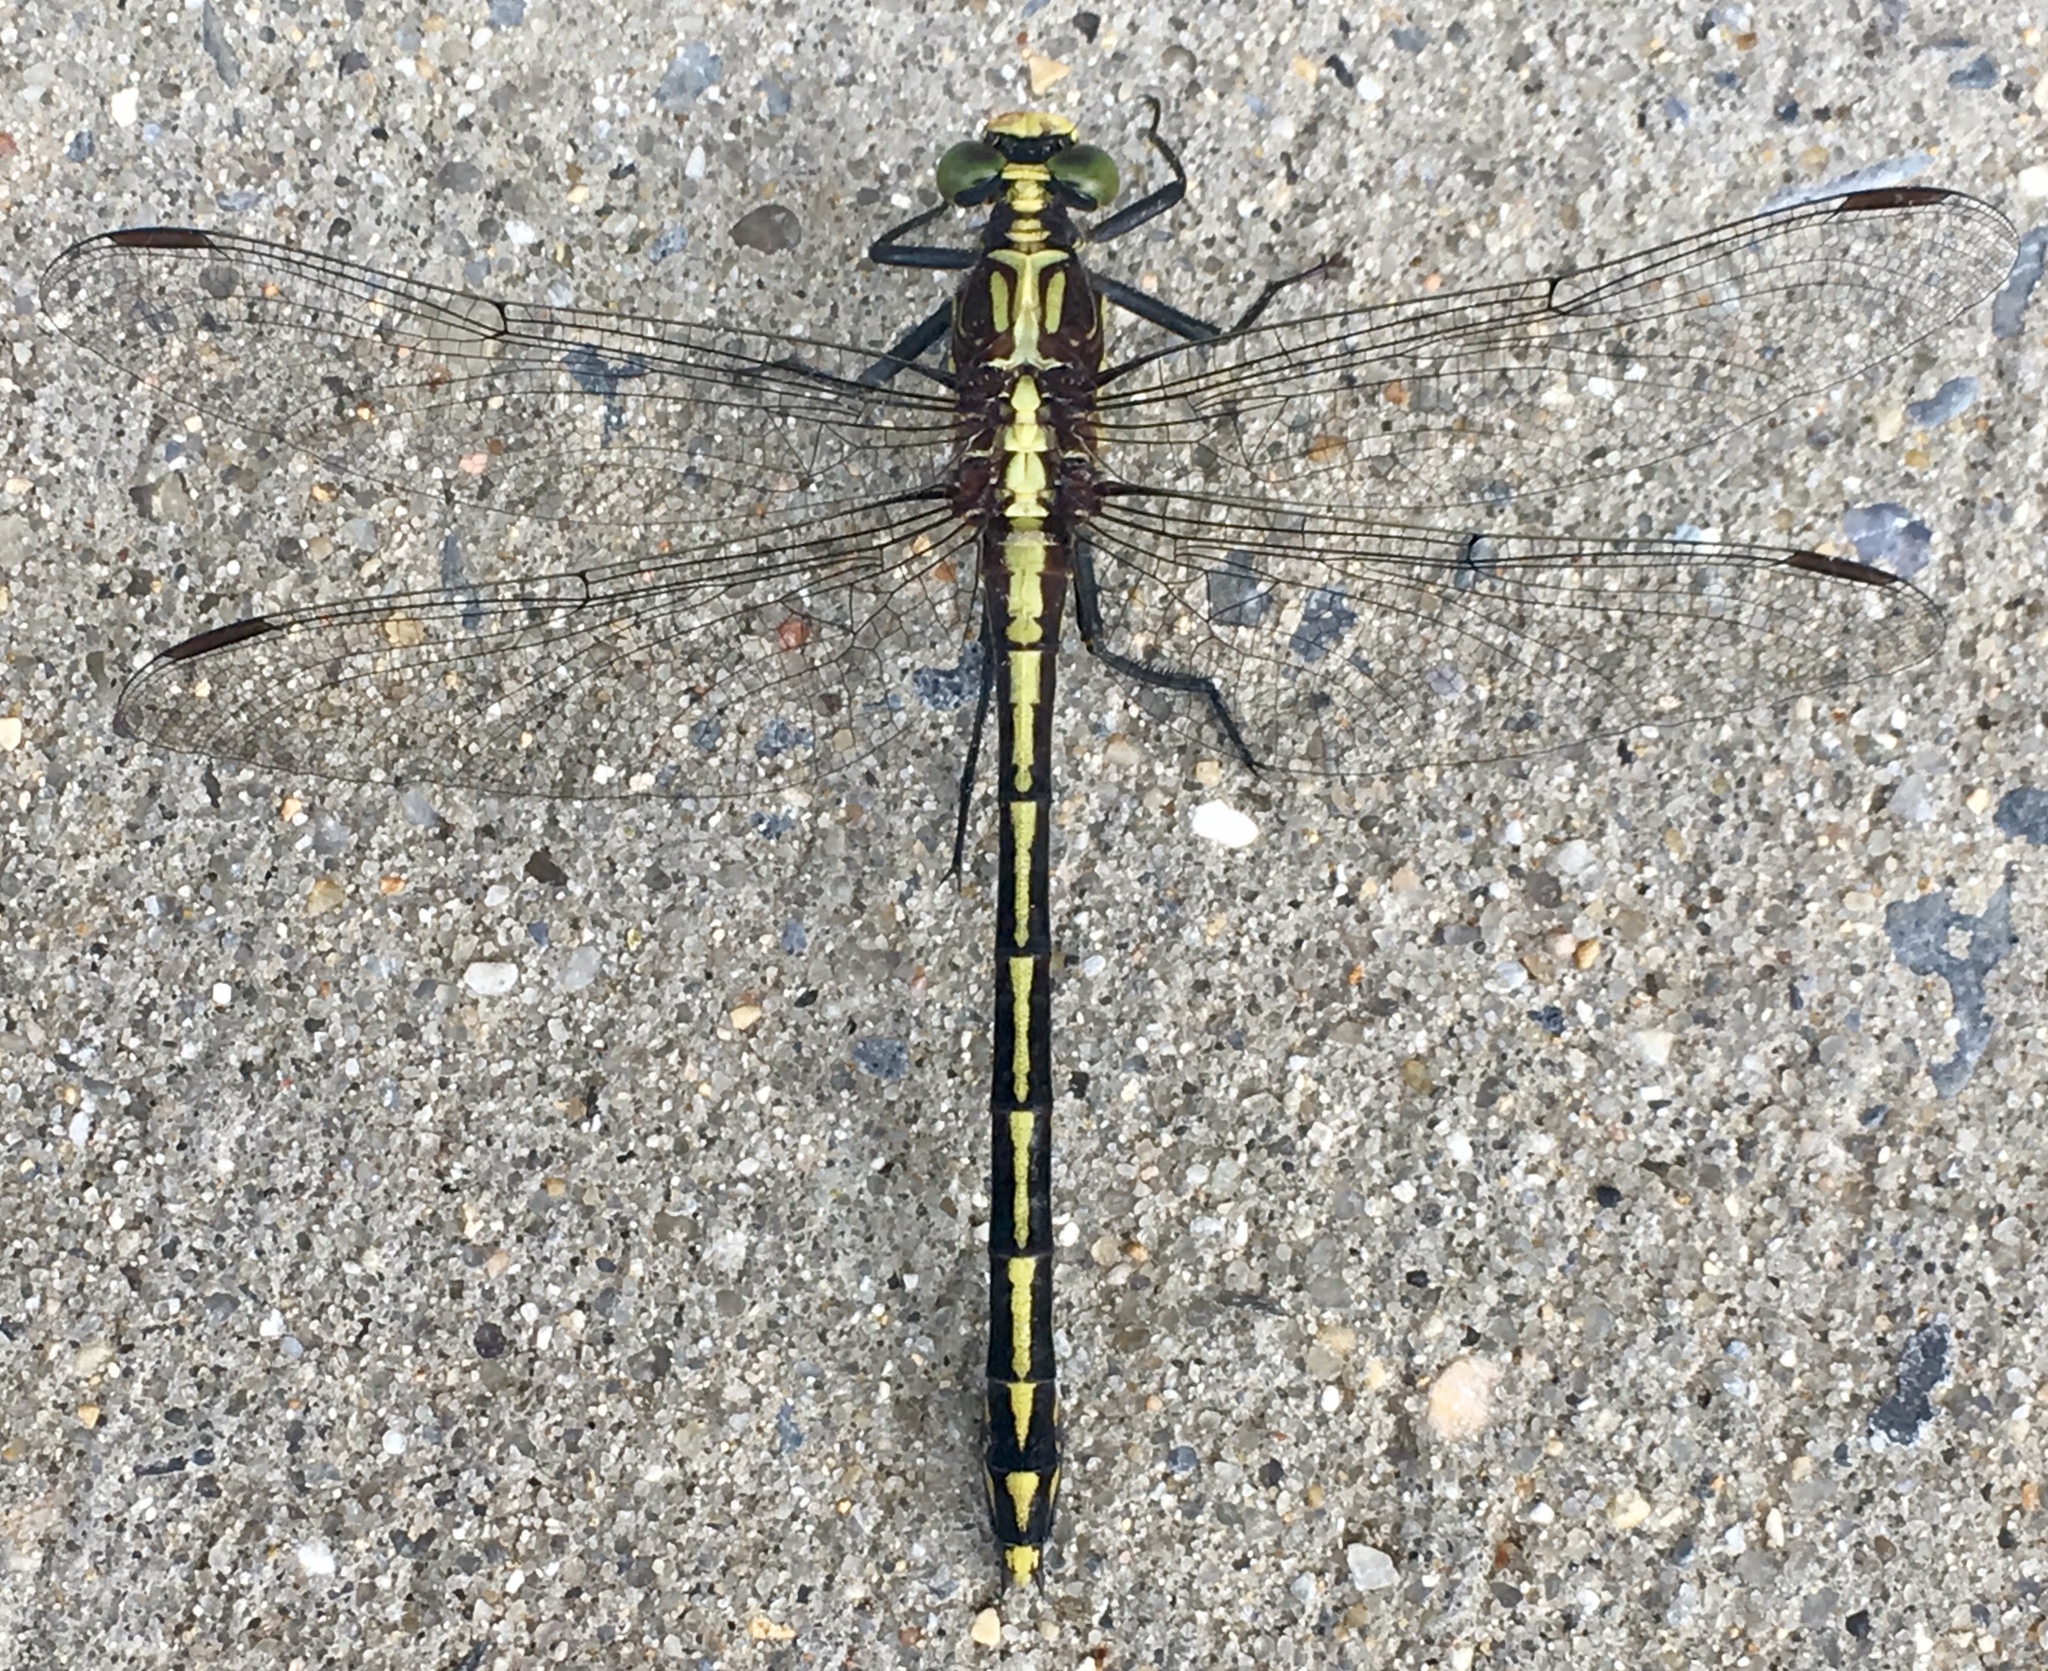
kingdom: Animalia
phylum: Arthropoda
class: Insecta
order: Odonata
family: Gomphidae
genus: Dromogomphus
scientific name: Dromogomphus spinosus
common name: Black-shouldered spinyleg
